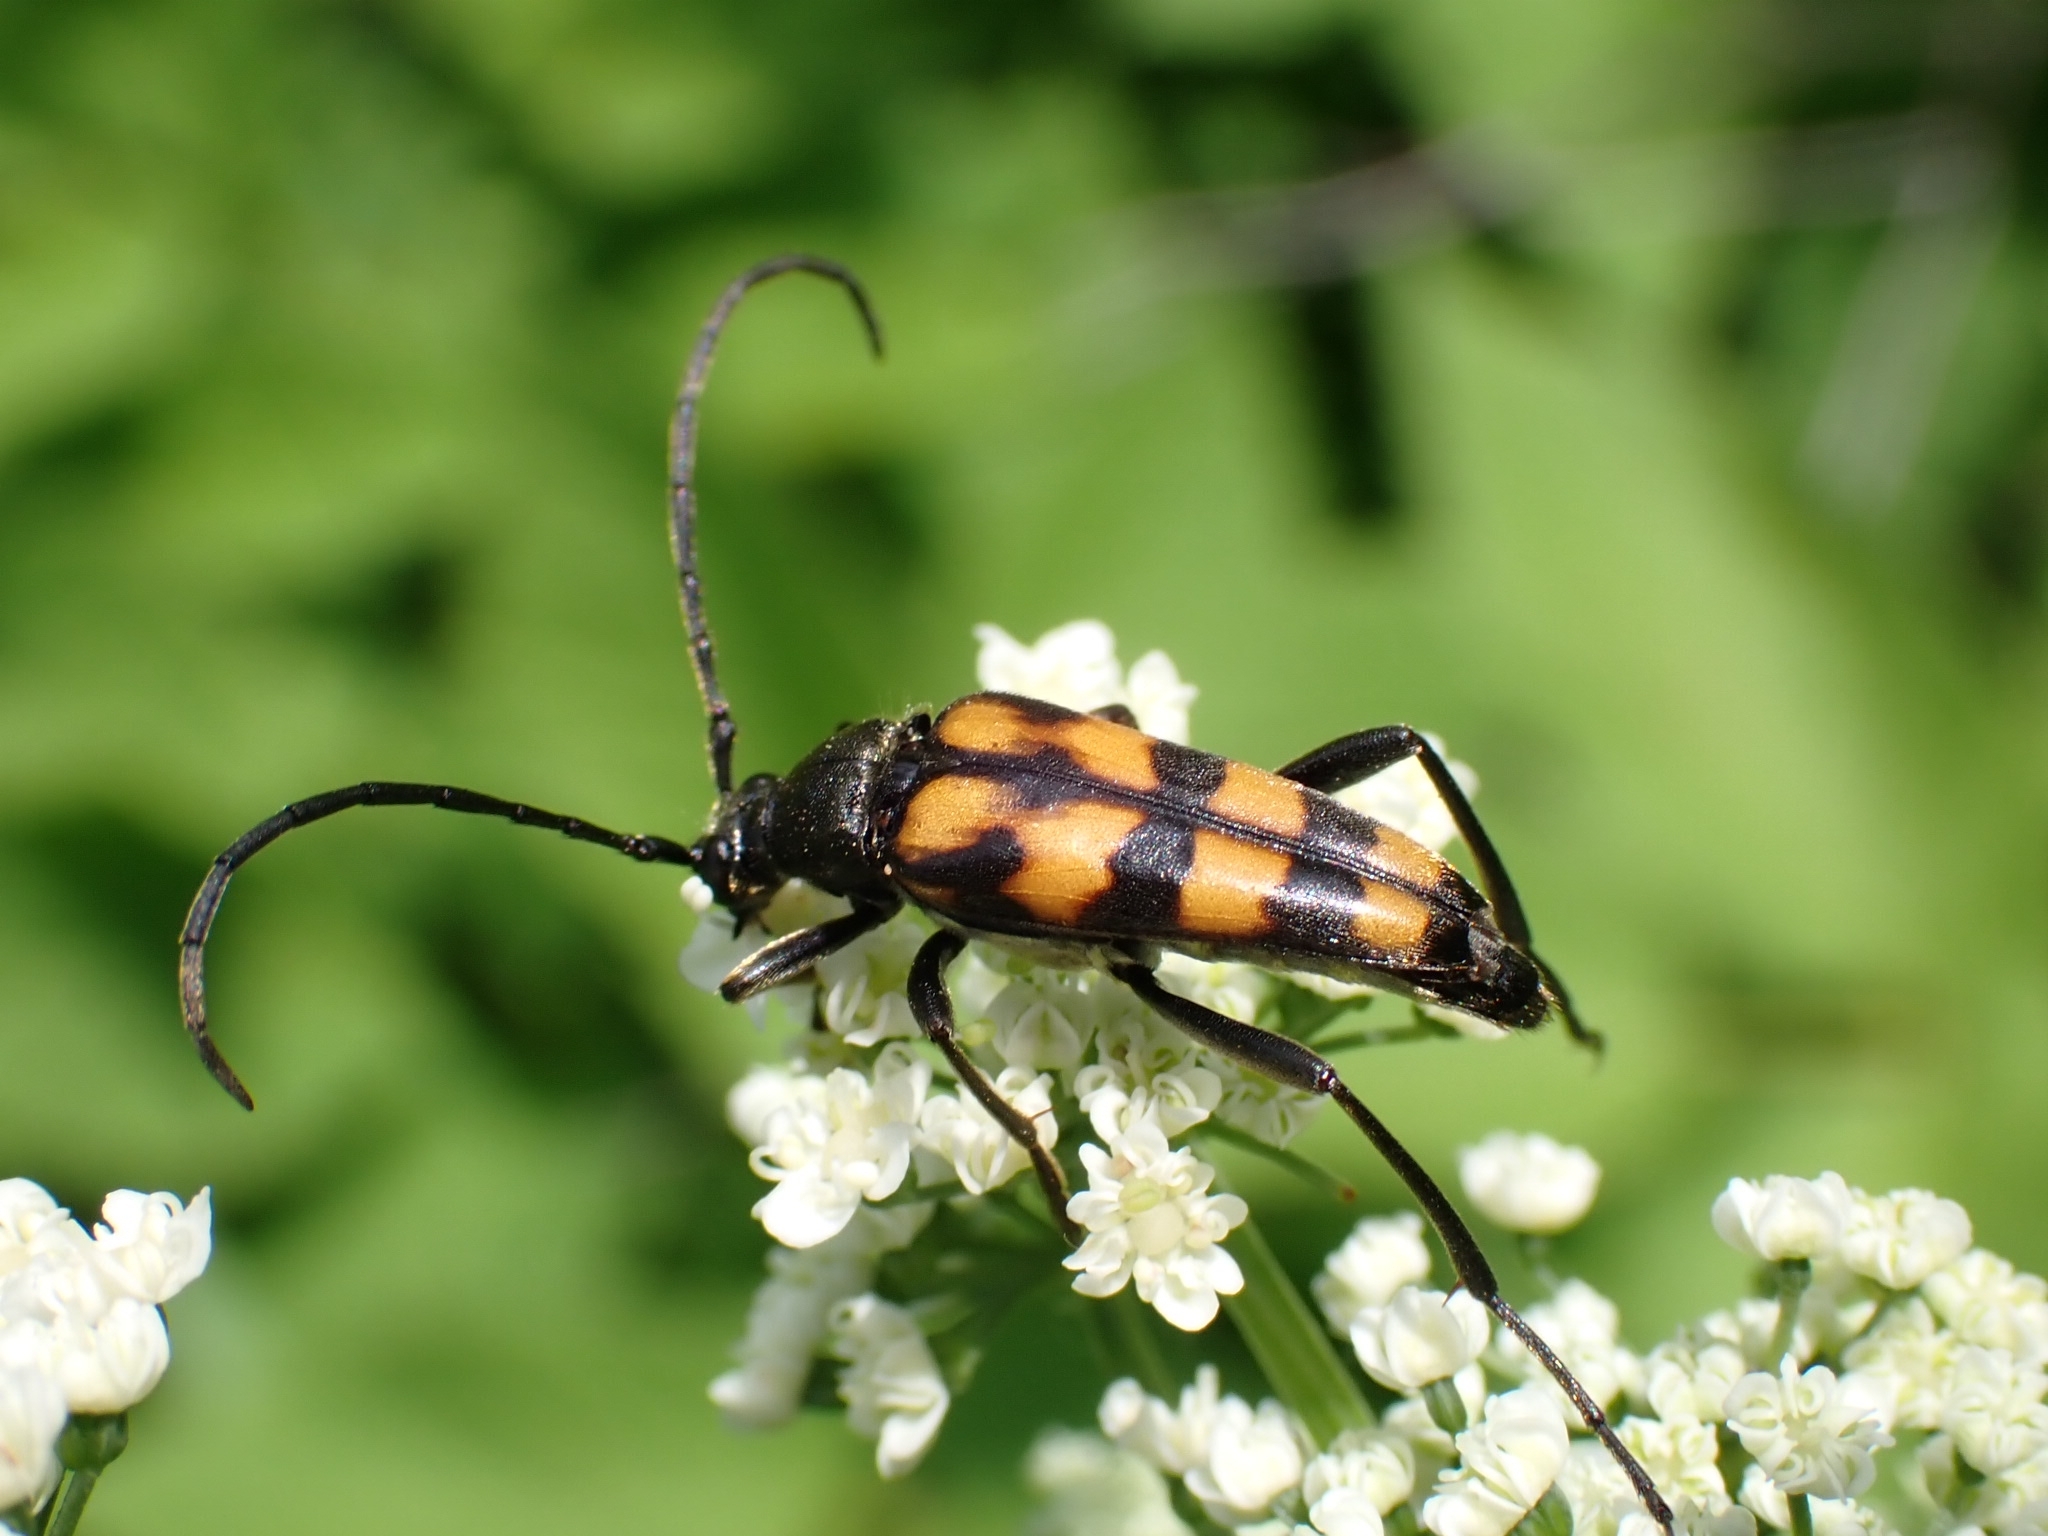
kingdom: Animalia
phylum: Arthropoda
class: Insecta
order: Coleoptera
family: Cerambycidae
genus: Leptura
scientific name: Leptura quadrifasciata
